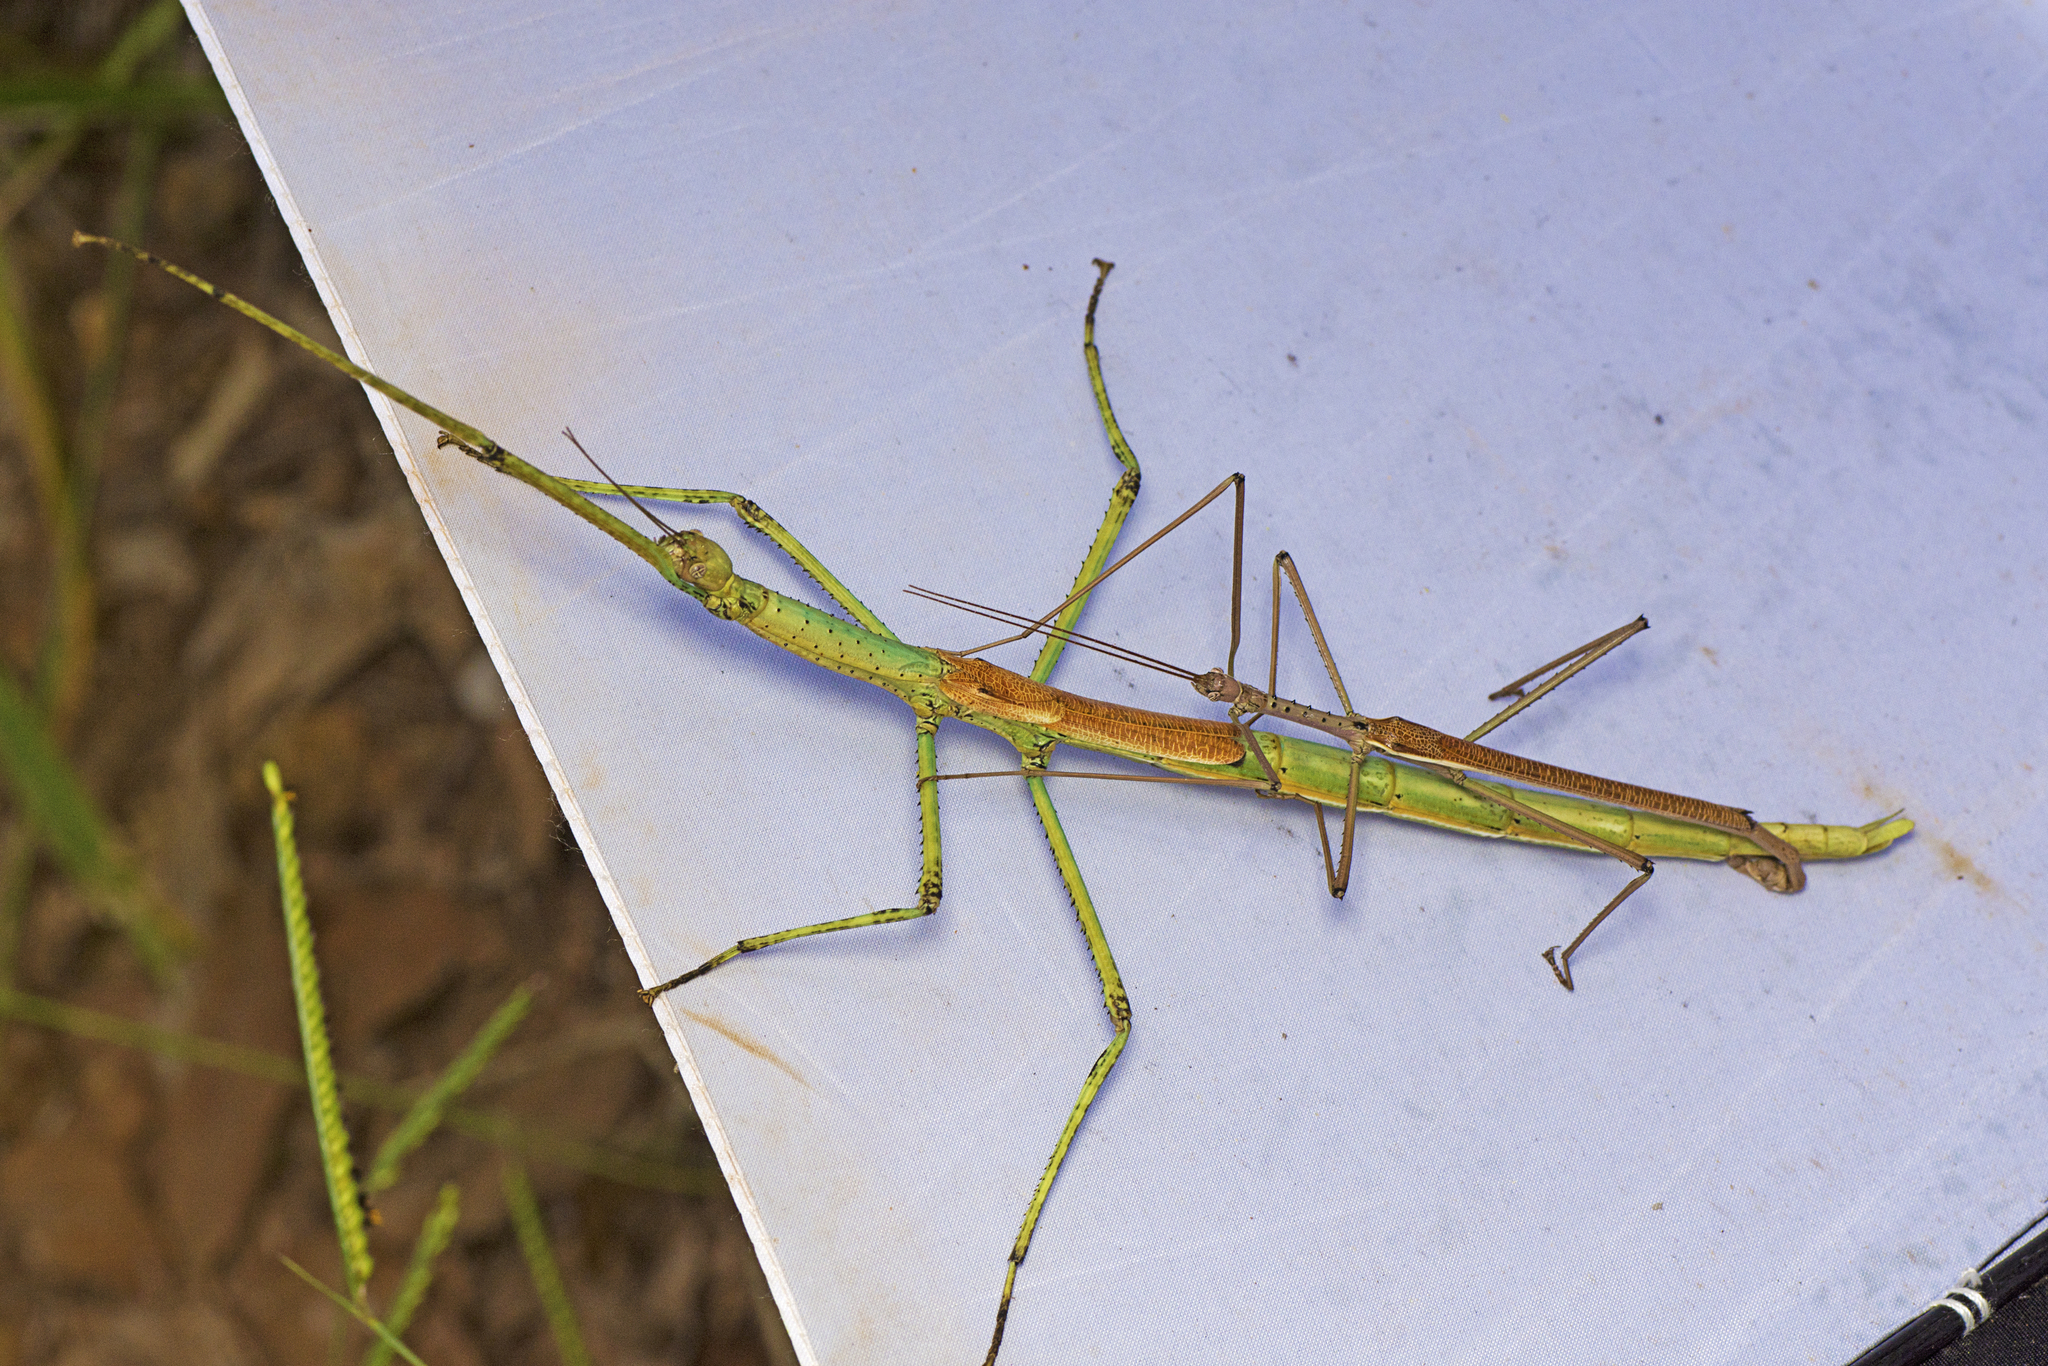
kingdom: Animalia
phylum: Arthropoda
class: Insecta
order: Phasmida
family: Phasmatidae
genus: Anchiale
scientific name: Anchiale austrotessulata
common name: Tessellated stick-insect
